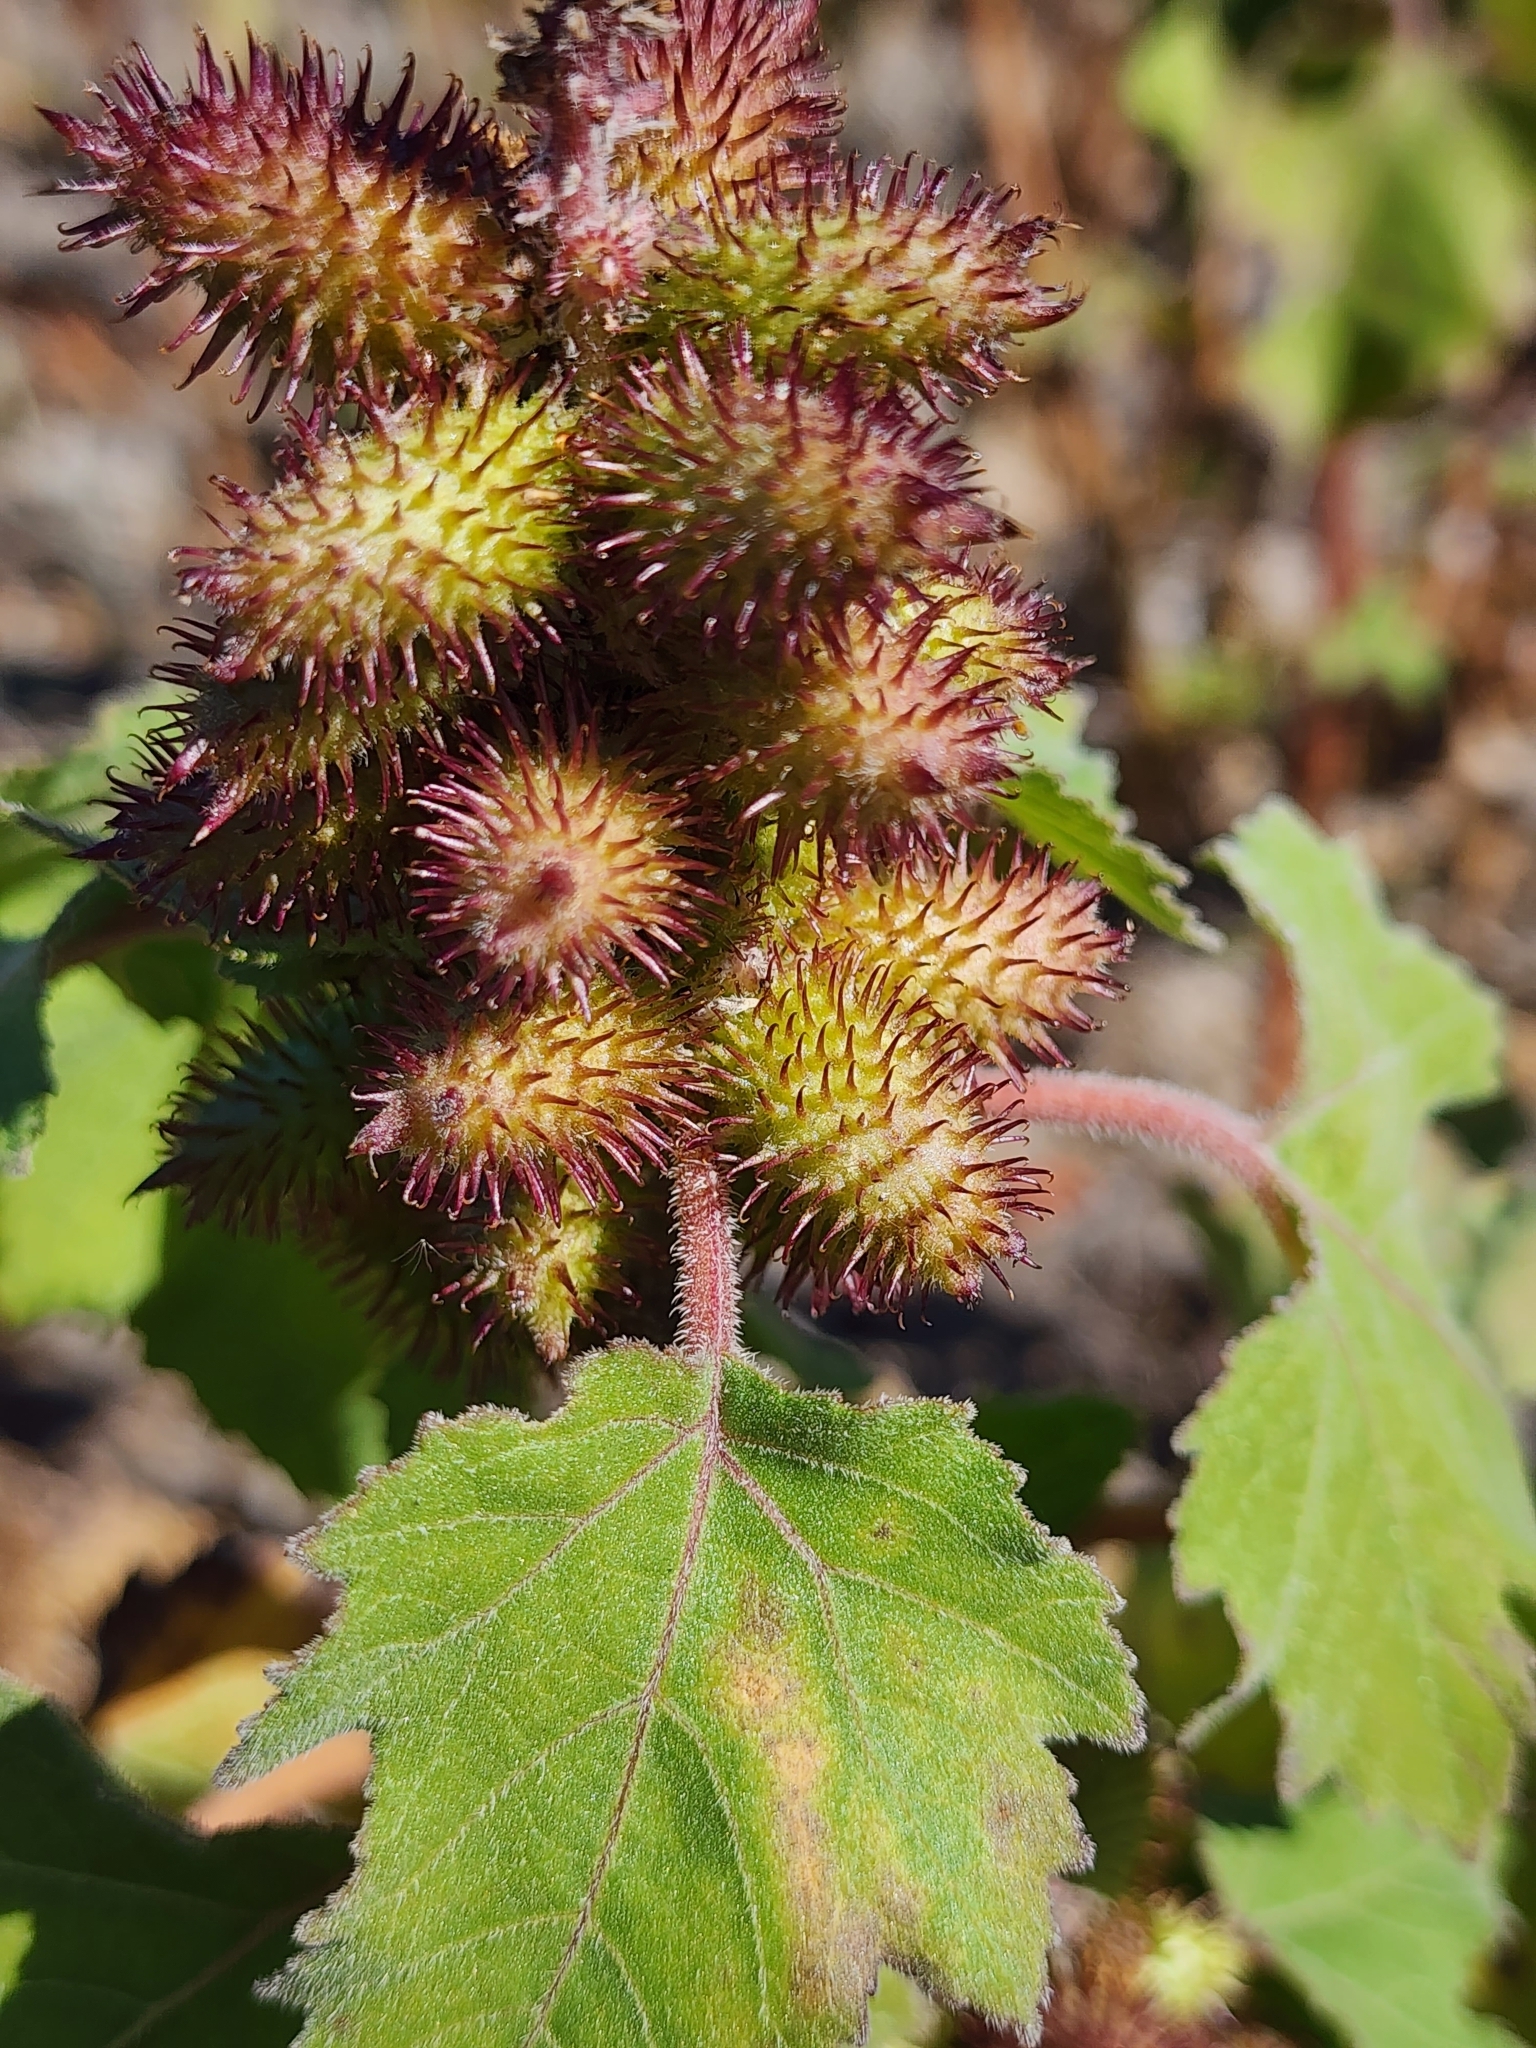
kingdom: Plantae
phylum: Tracheophyta
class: Magnoliopsida
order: Asterales
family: Asteraceae
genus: Xanthium
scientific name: Xanthium strumarium
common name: Rough cocklebur
